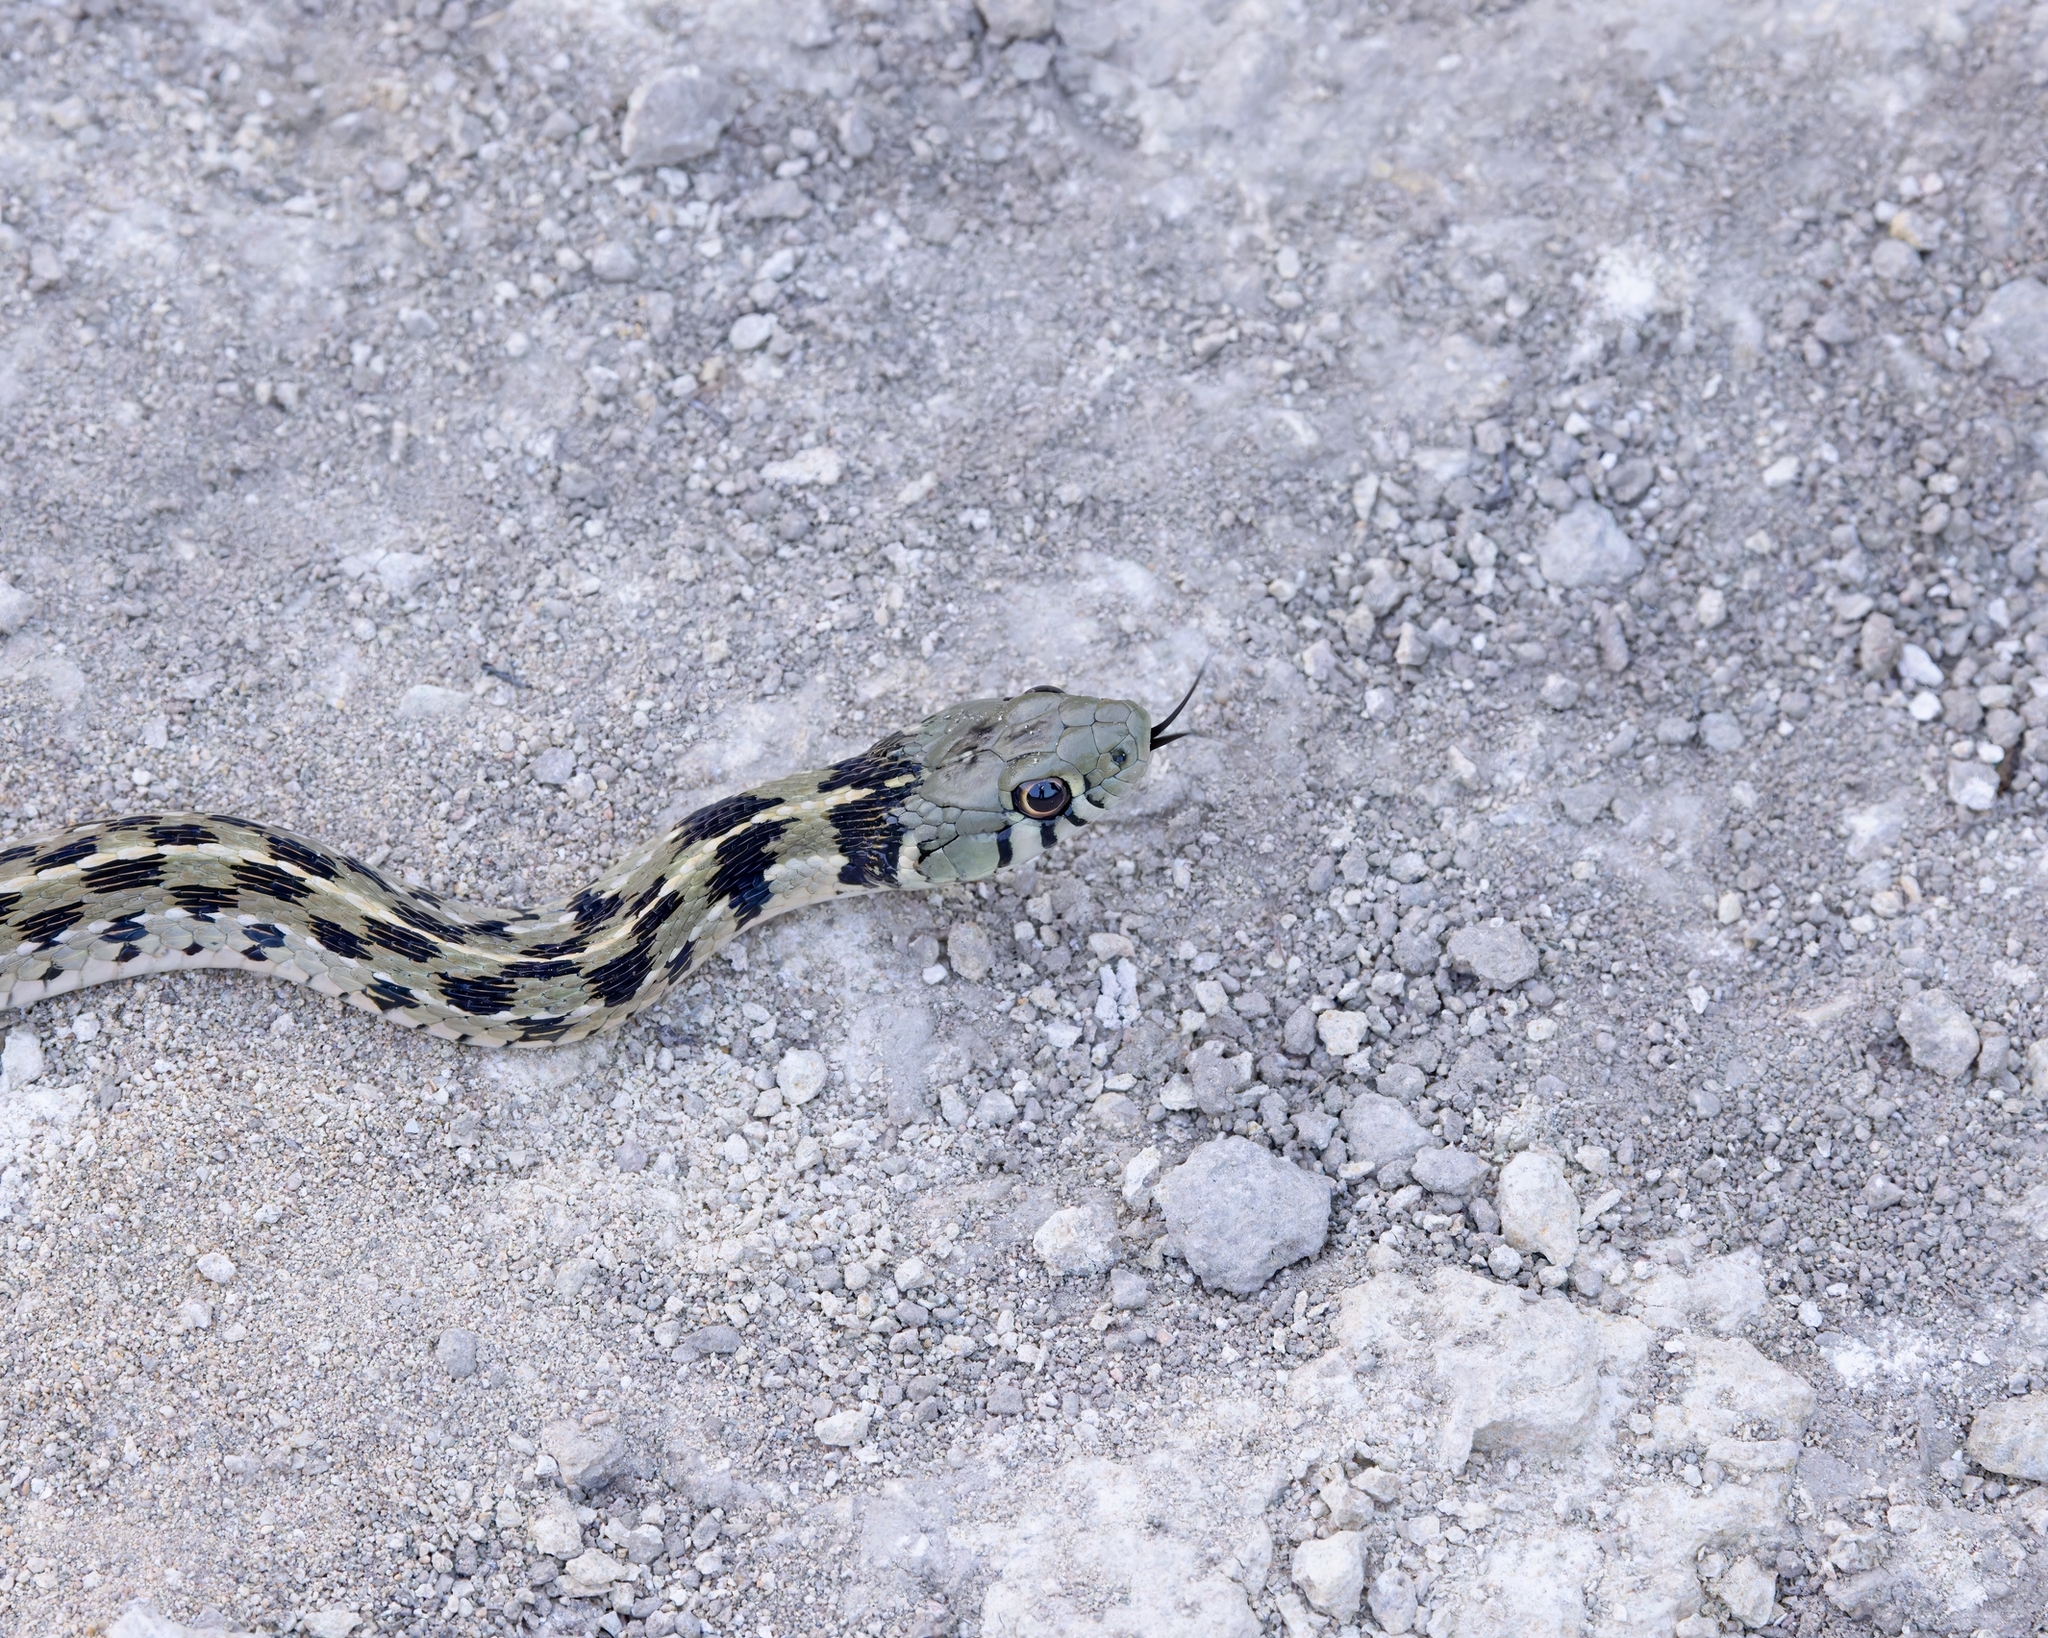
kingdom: Animalia
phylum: Chordata
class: Squamata
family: Colubridae
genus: Thamnophis
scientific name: Thamnophis marcianus
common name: Checkered garter snake
